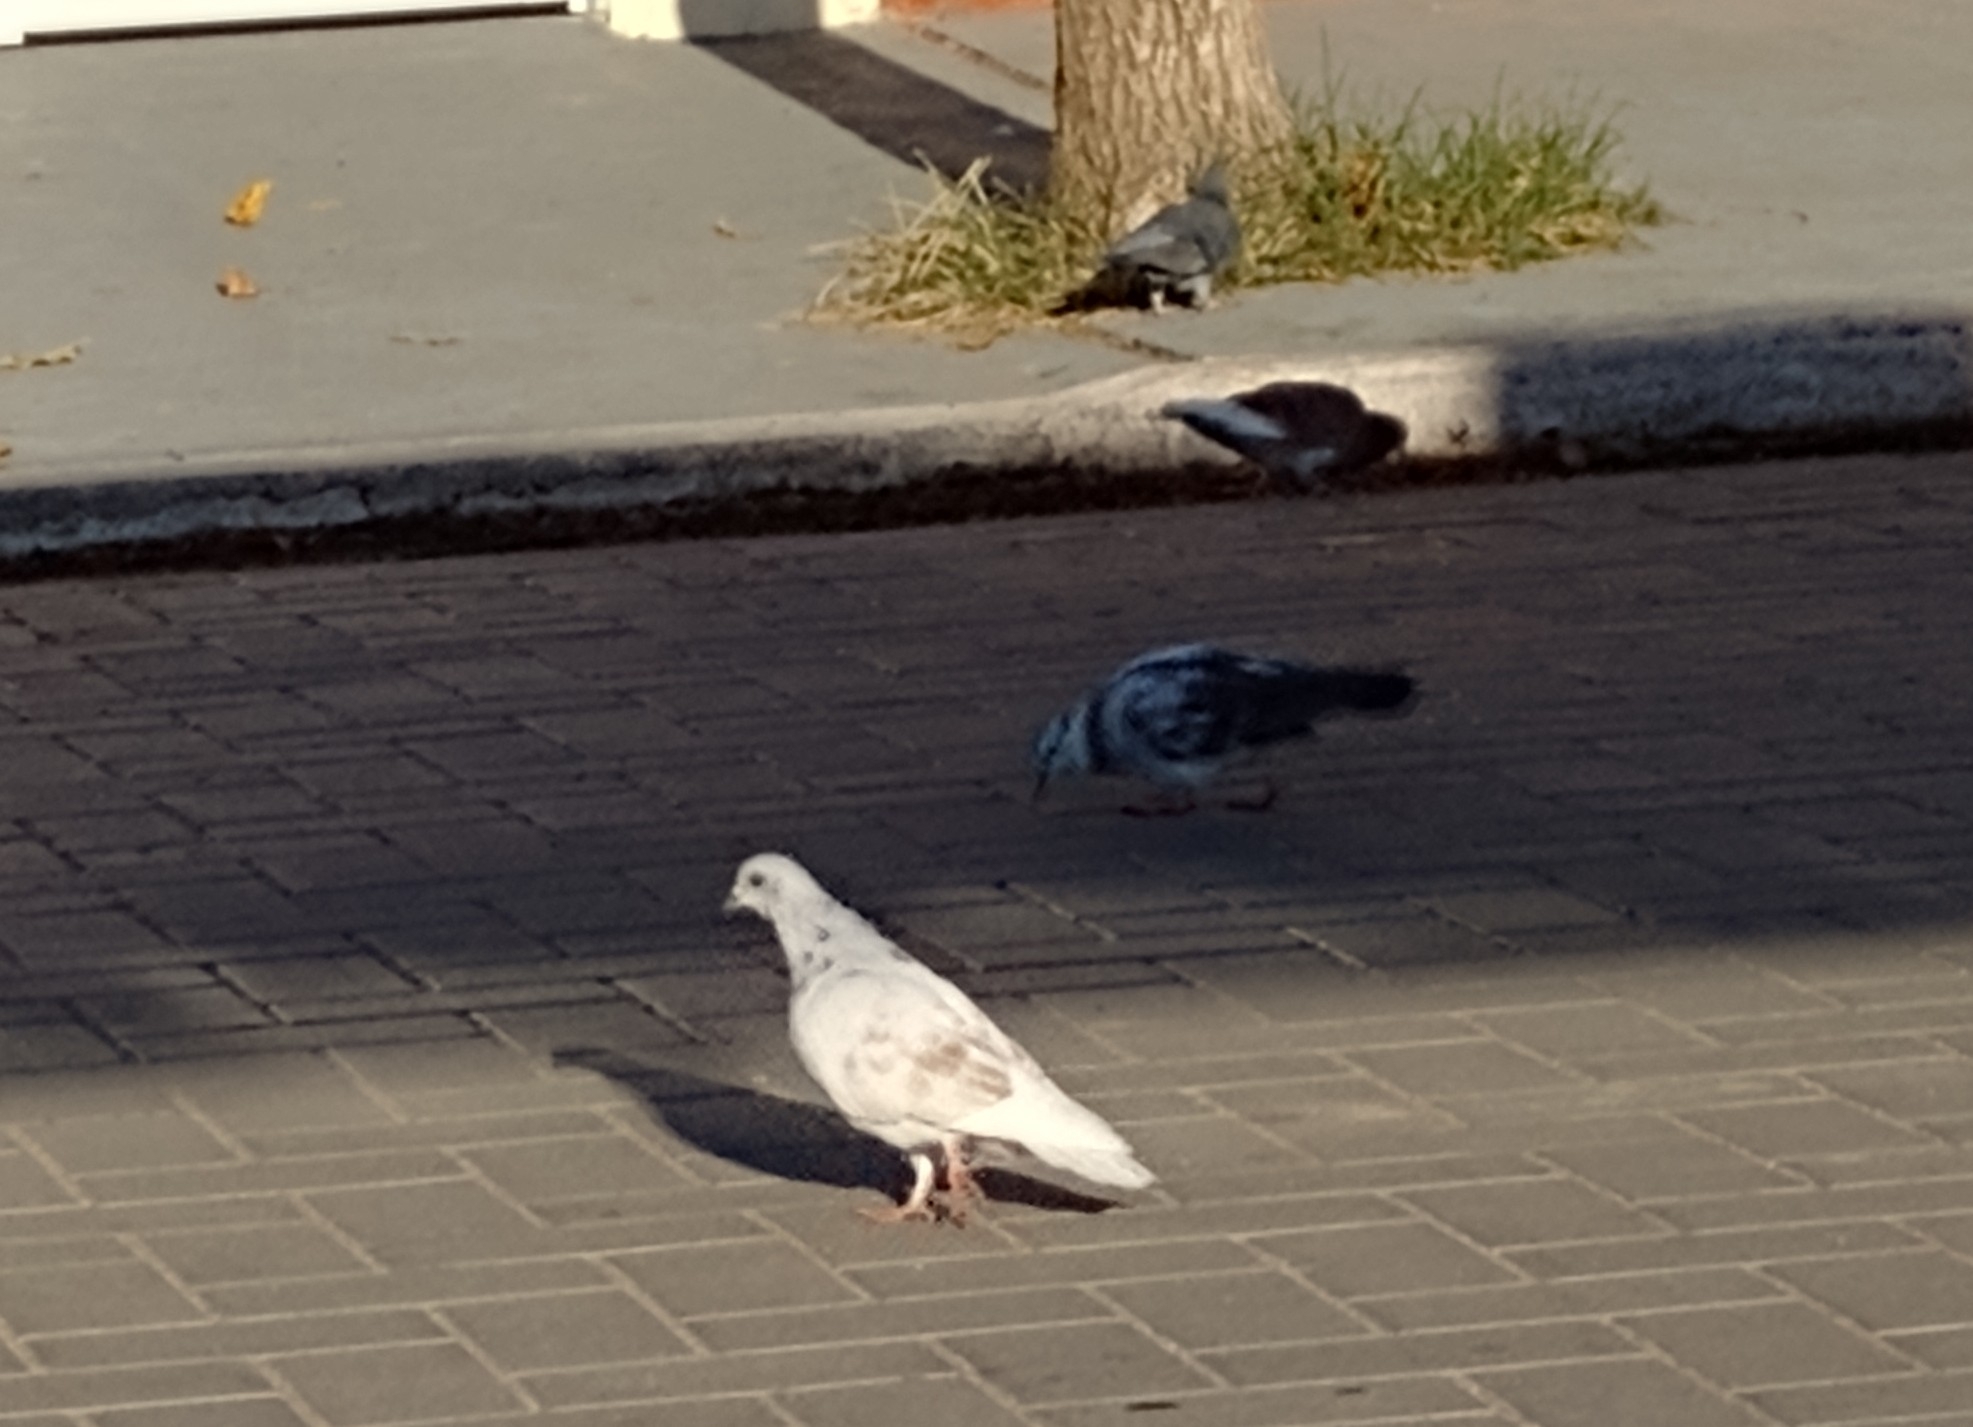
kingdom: Animalia
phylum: Chordata
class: Aves
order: Columbiformes
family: Columbidae
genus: Columba
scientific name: Columba livia
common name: Rock pigeon
